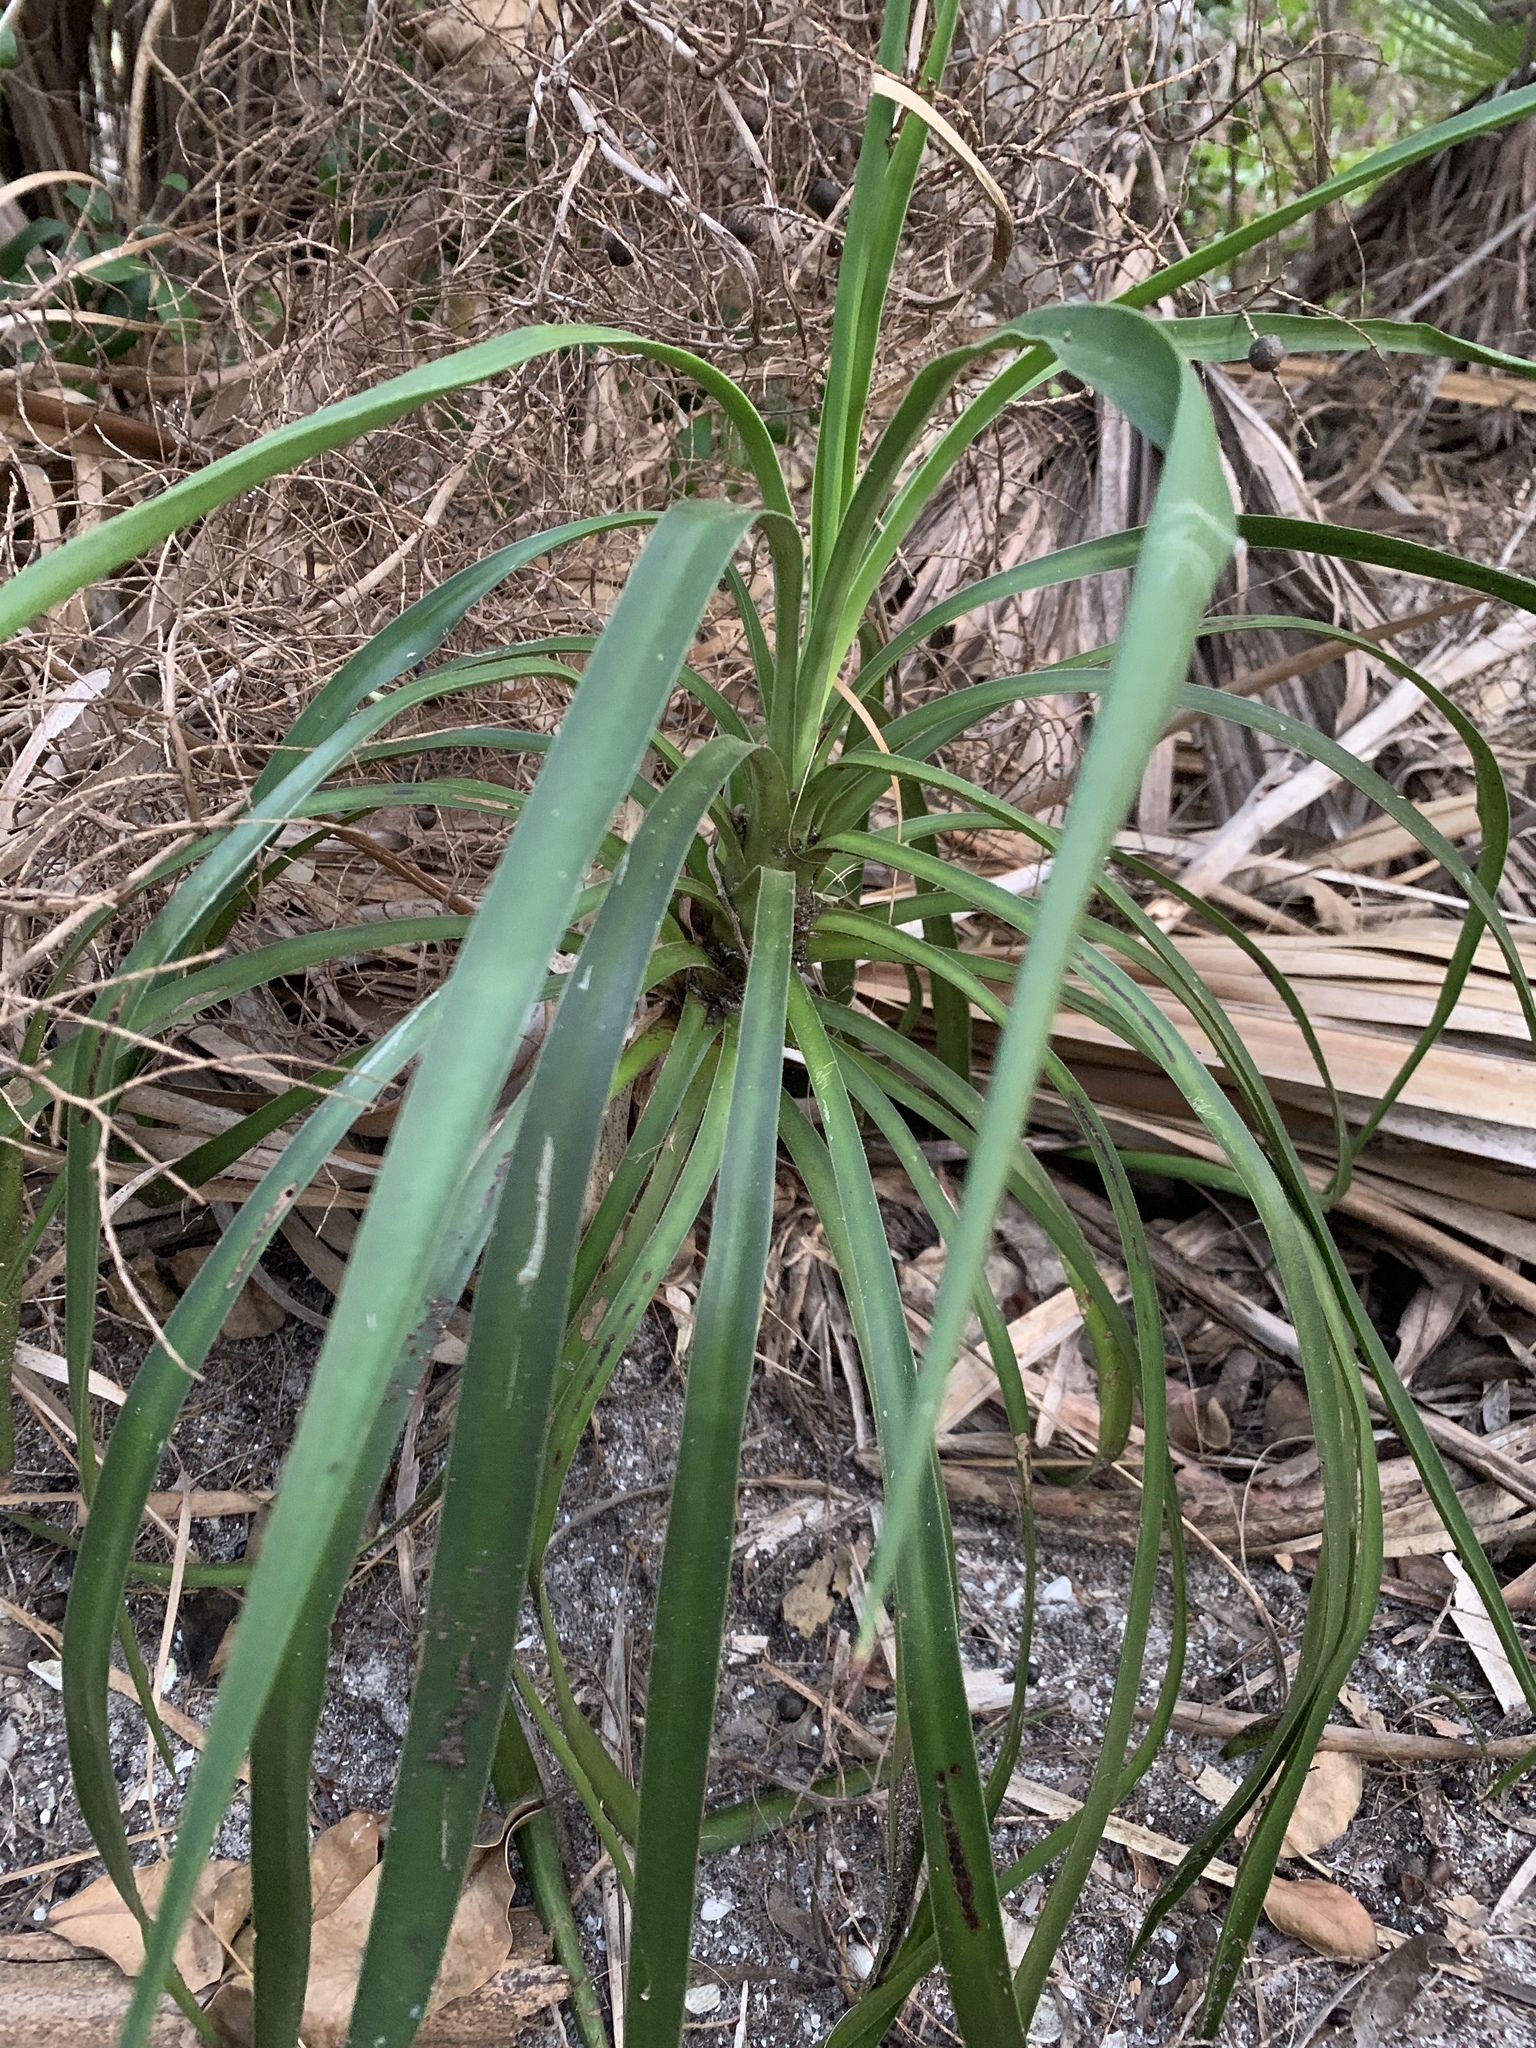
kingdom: Plantae
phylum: Tracheophyta
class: Liliopsida
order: Asparagales
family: Asparagaceae
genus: Yucca
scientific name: Yucca aloifolia
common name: Aloe yucca
